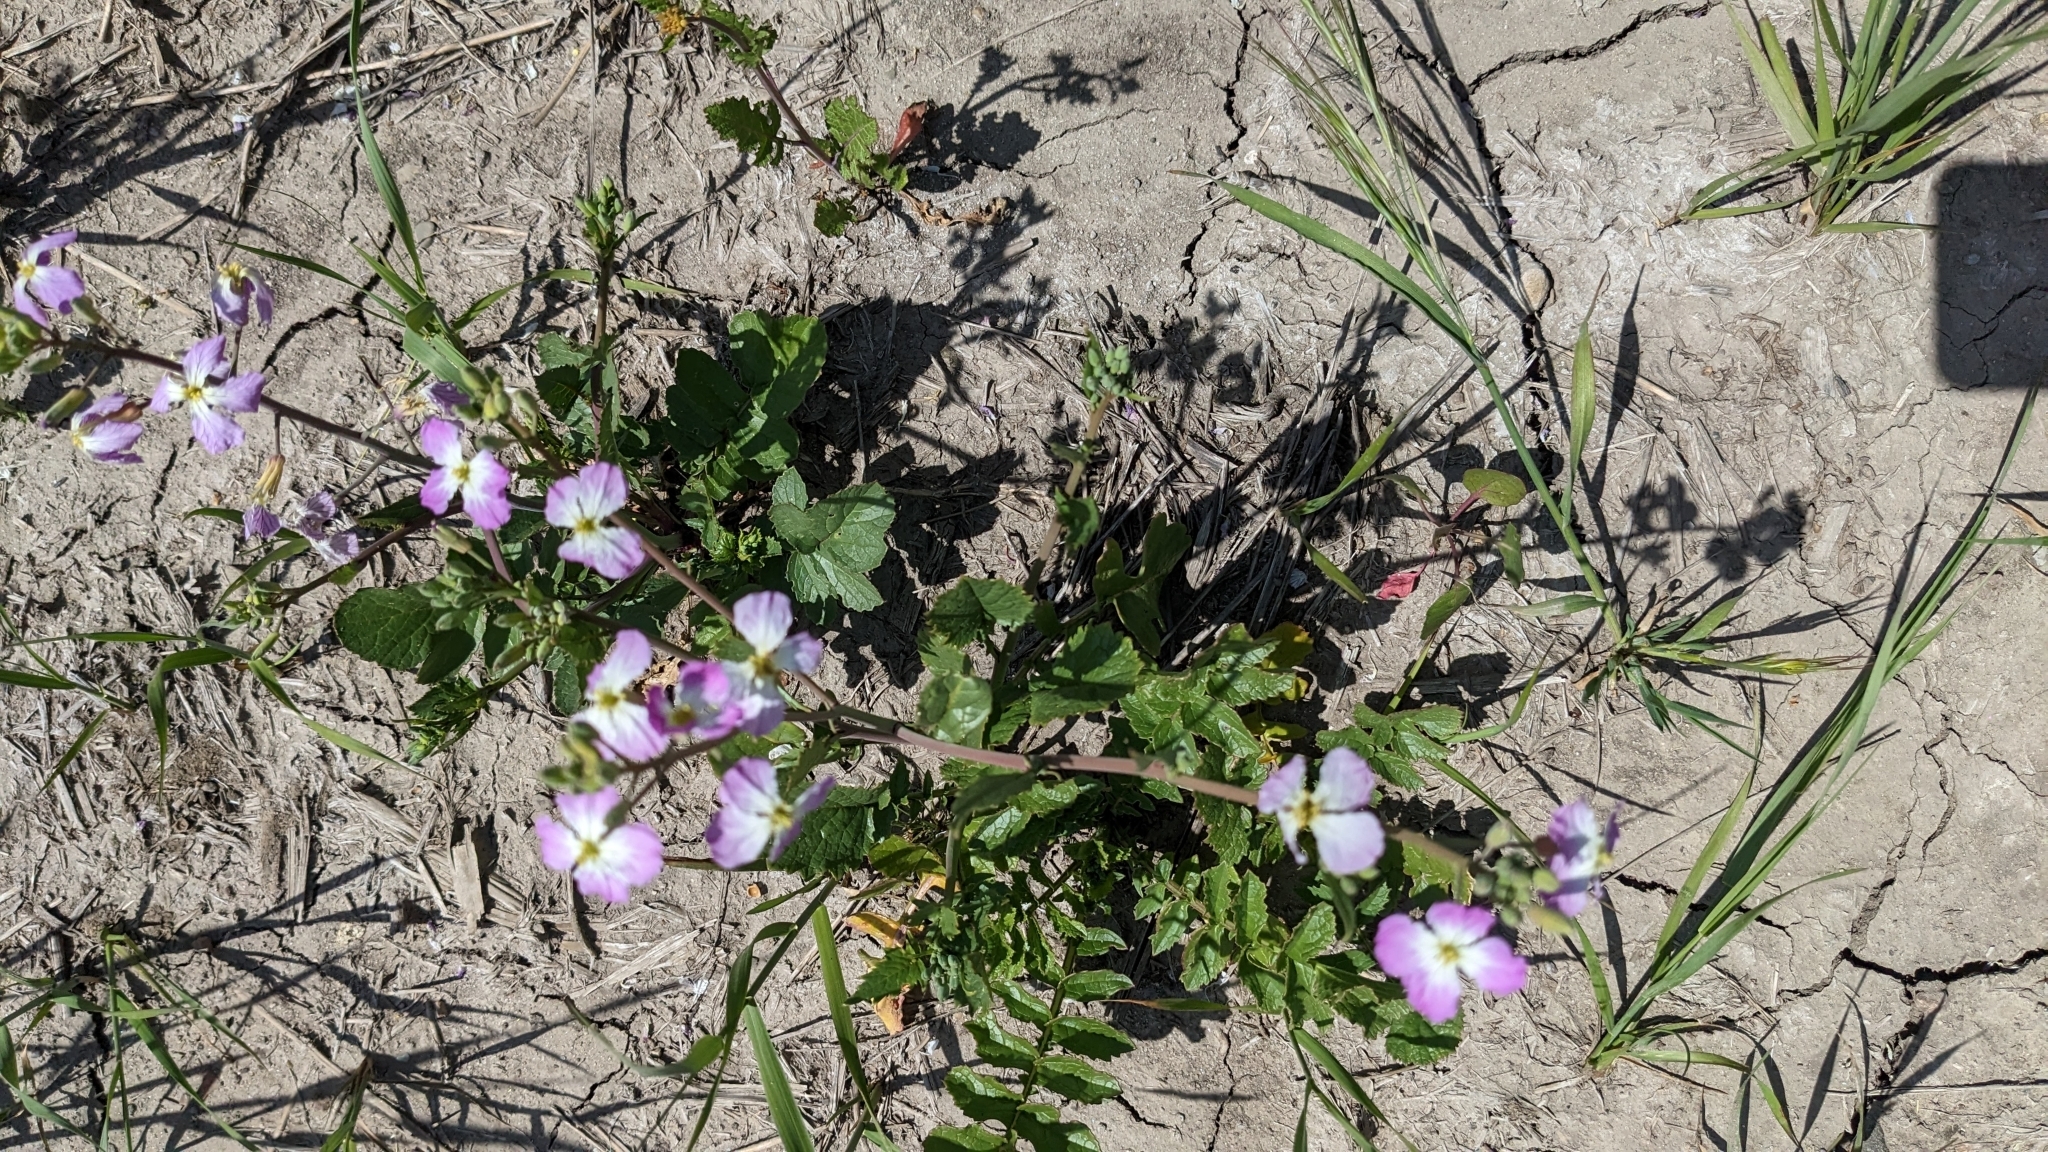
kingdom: Plantae
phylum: Tracheophyta
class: Magnoliopsida
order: Brassicales
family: Brassicaceae
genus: Raphanus
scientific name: Raphanus sativus
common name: Cultivated radish
